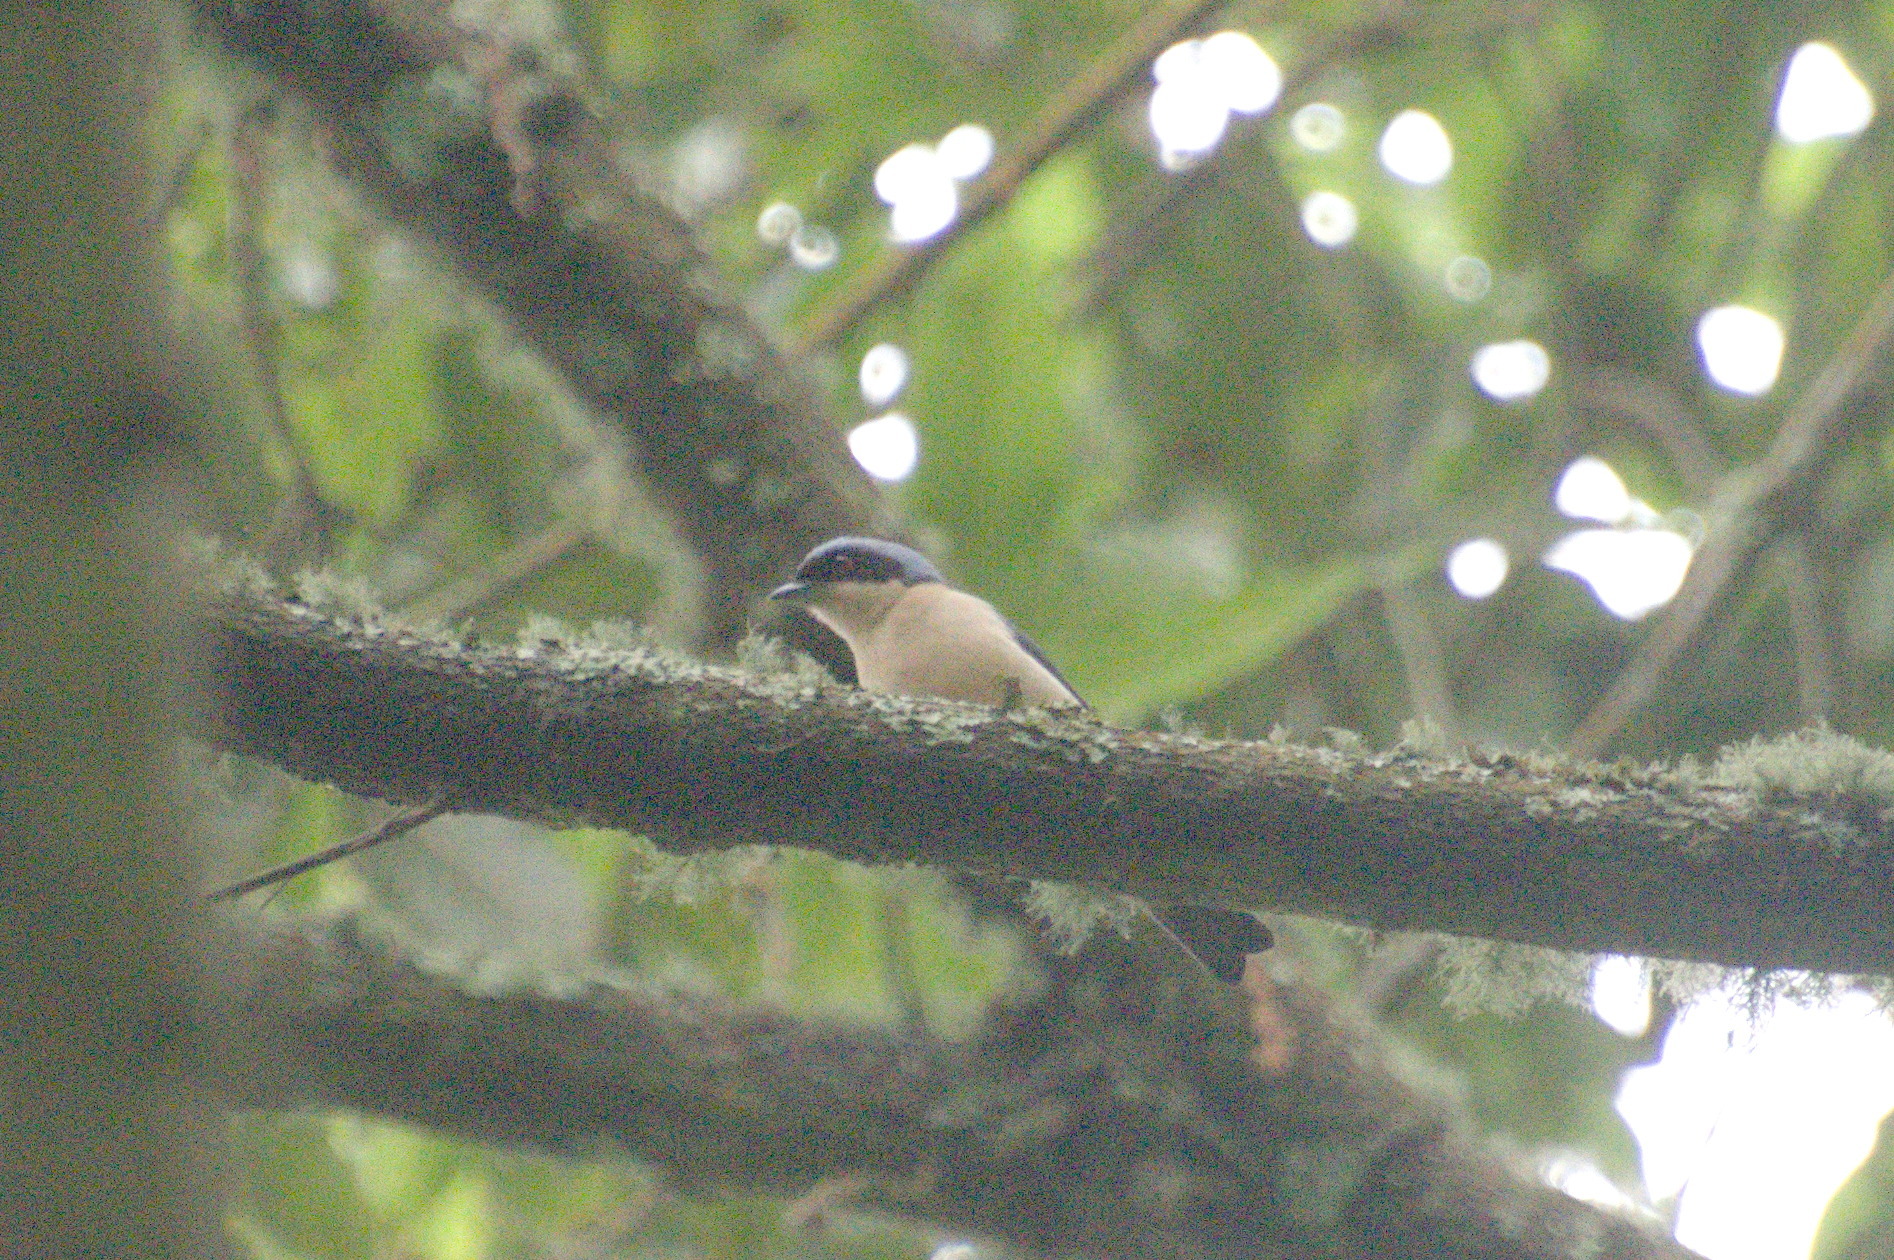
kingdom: Animalia
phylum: Chordata
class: Aves
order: Passeriformes
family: Thraupidae
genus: Pipraeidea
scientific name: Pipraeidea melanonota
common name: Fawn-breasted tanager
